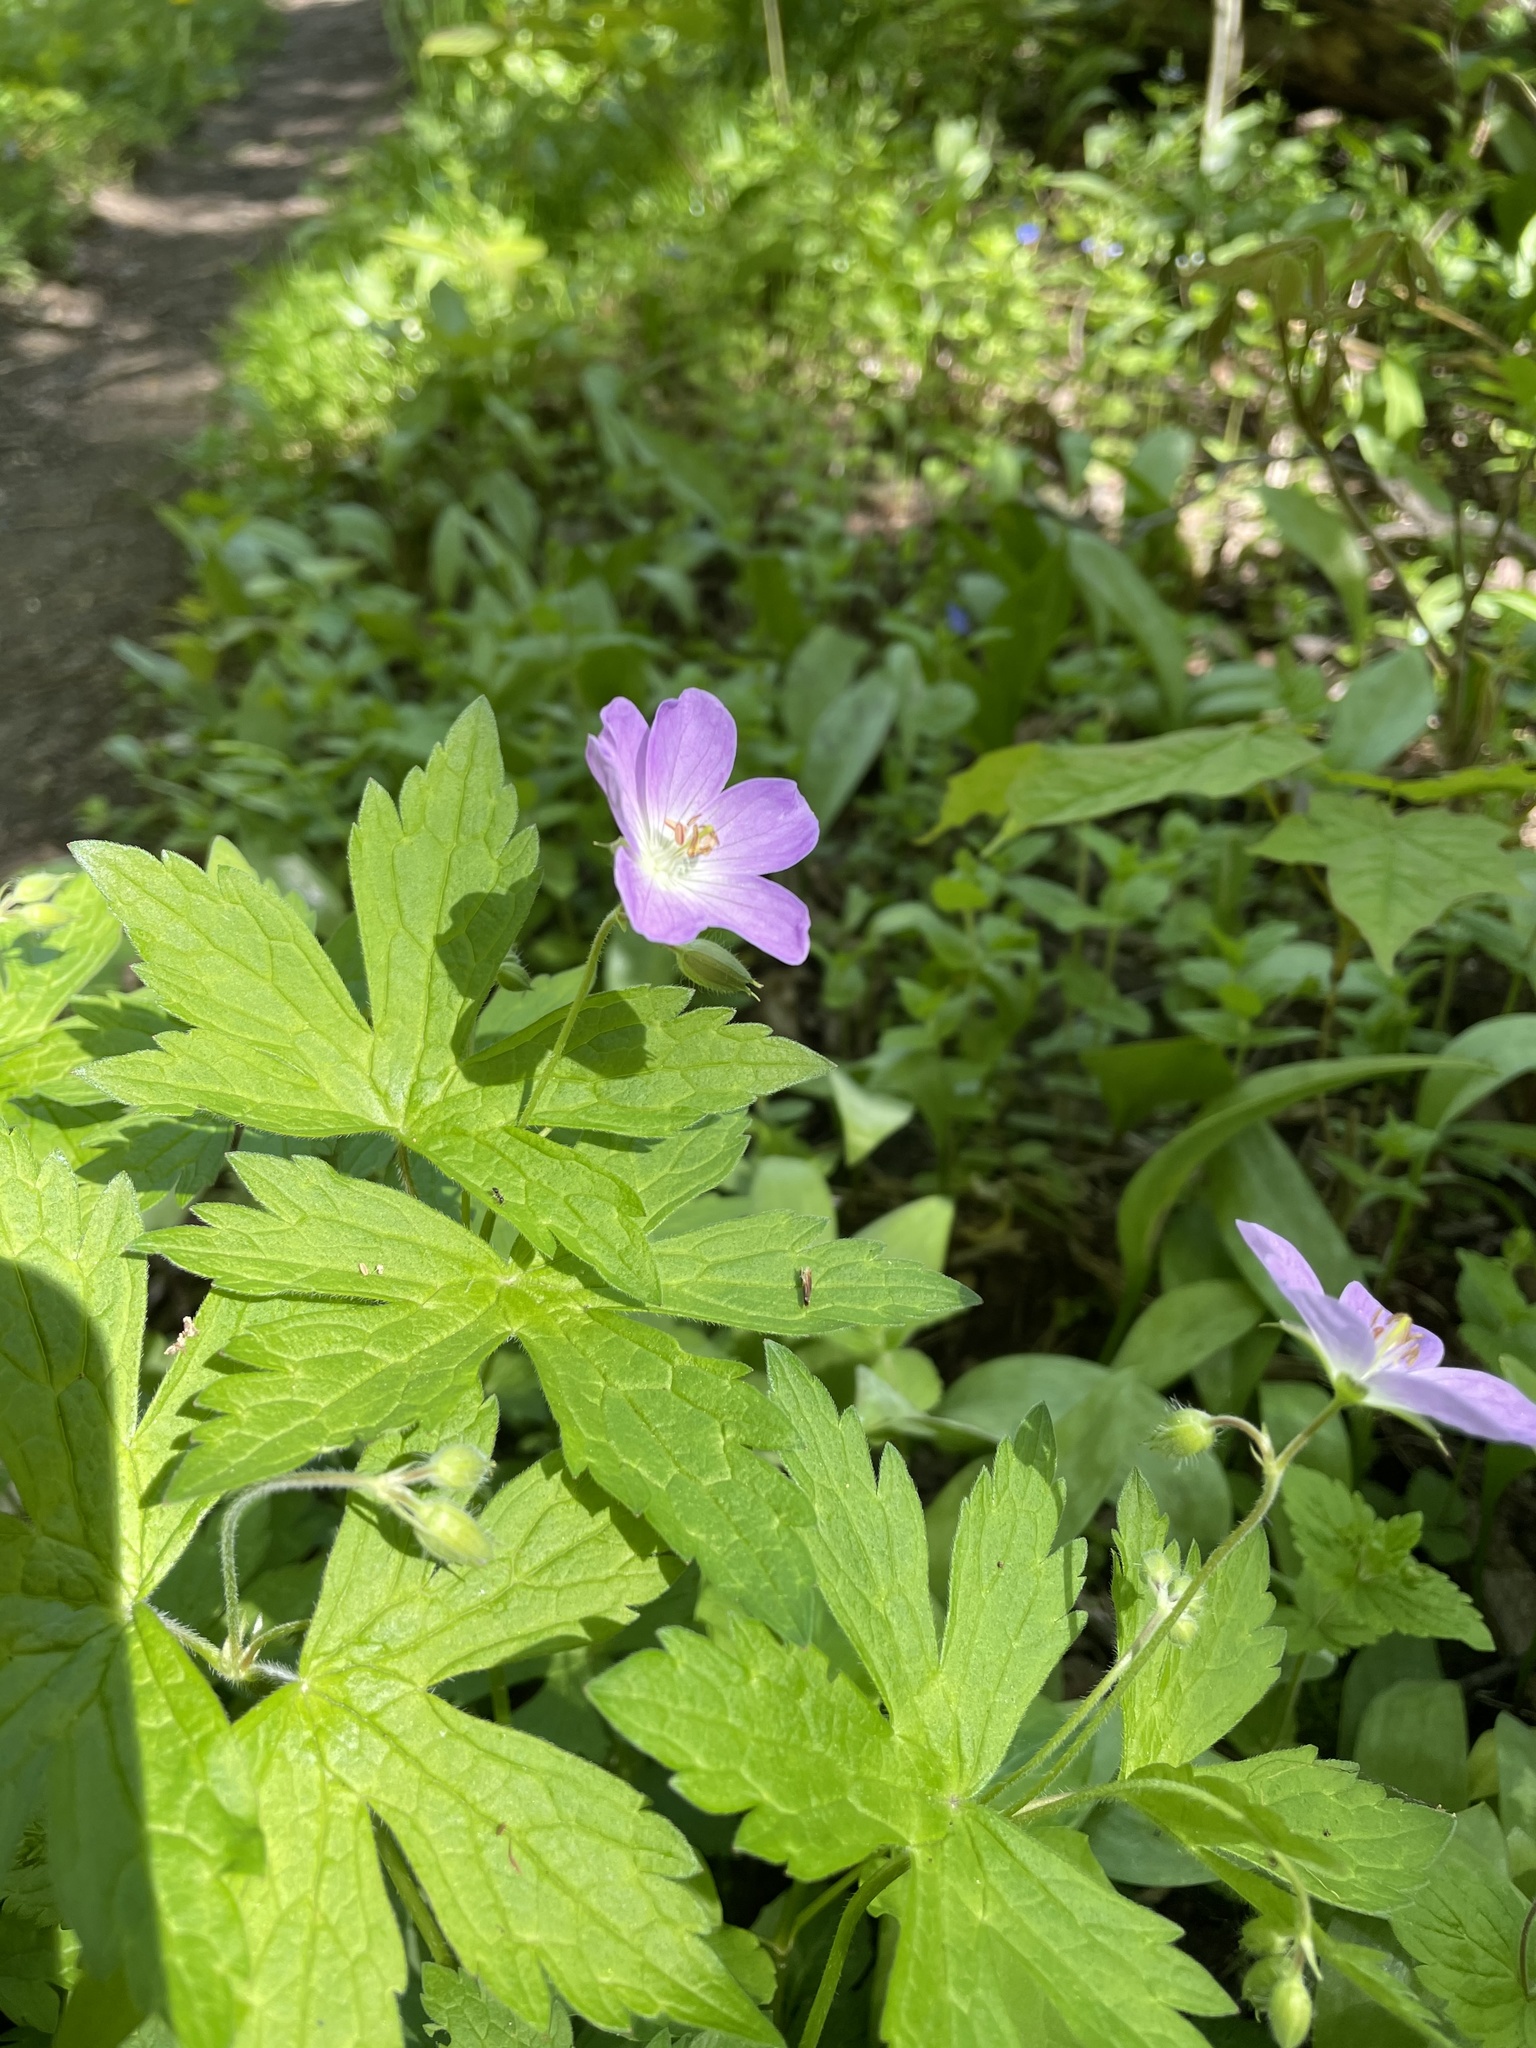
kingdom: Plantae
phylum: Tracheophyta
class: Magnoliopsida
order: Geraniales
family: Geraniaceae
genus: Geranium
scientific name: Geranium maculatum
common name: Spotted geranium
